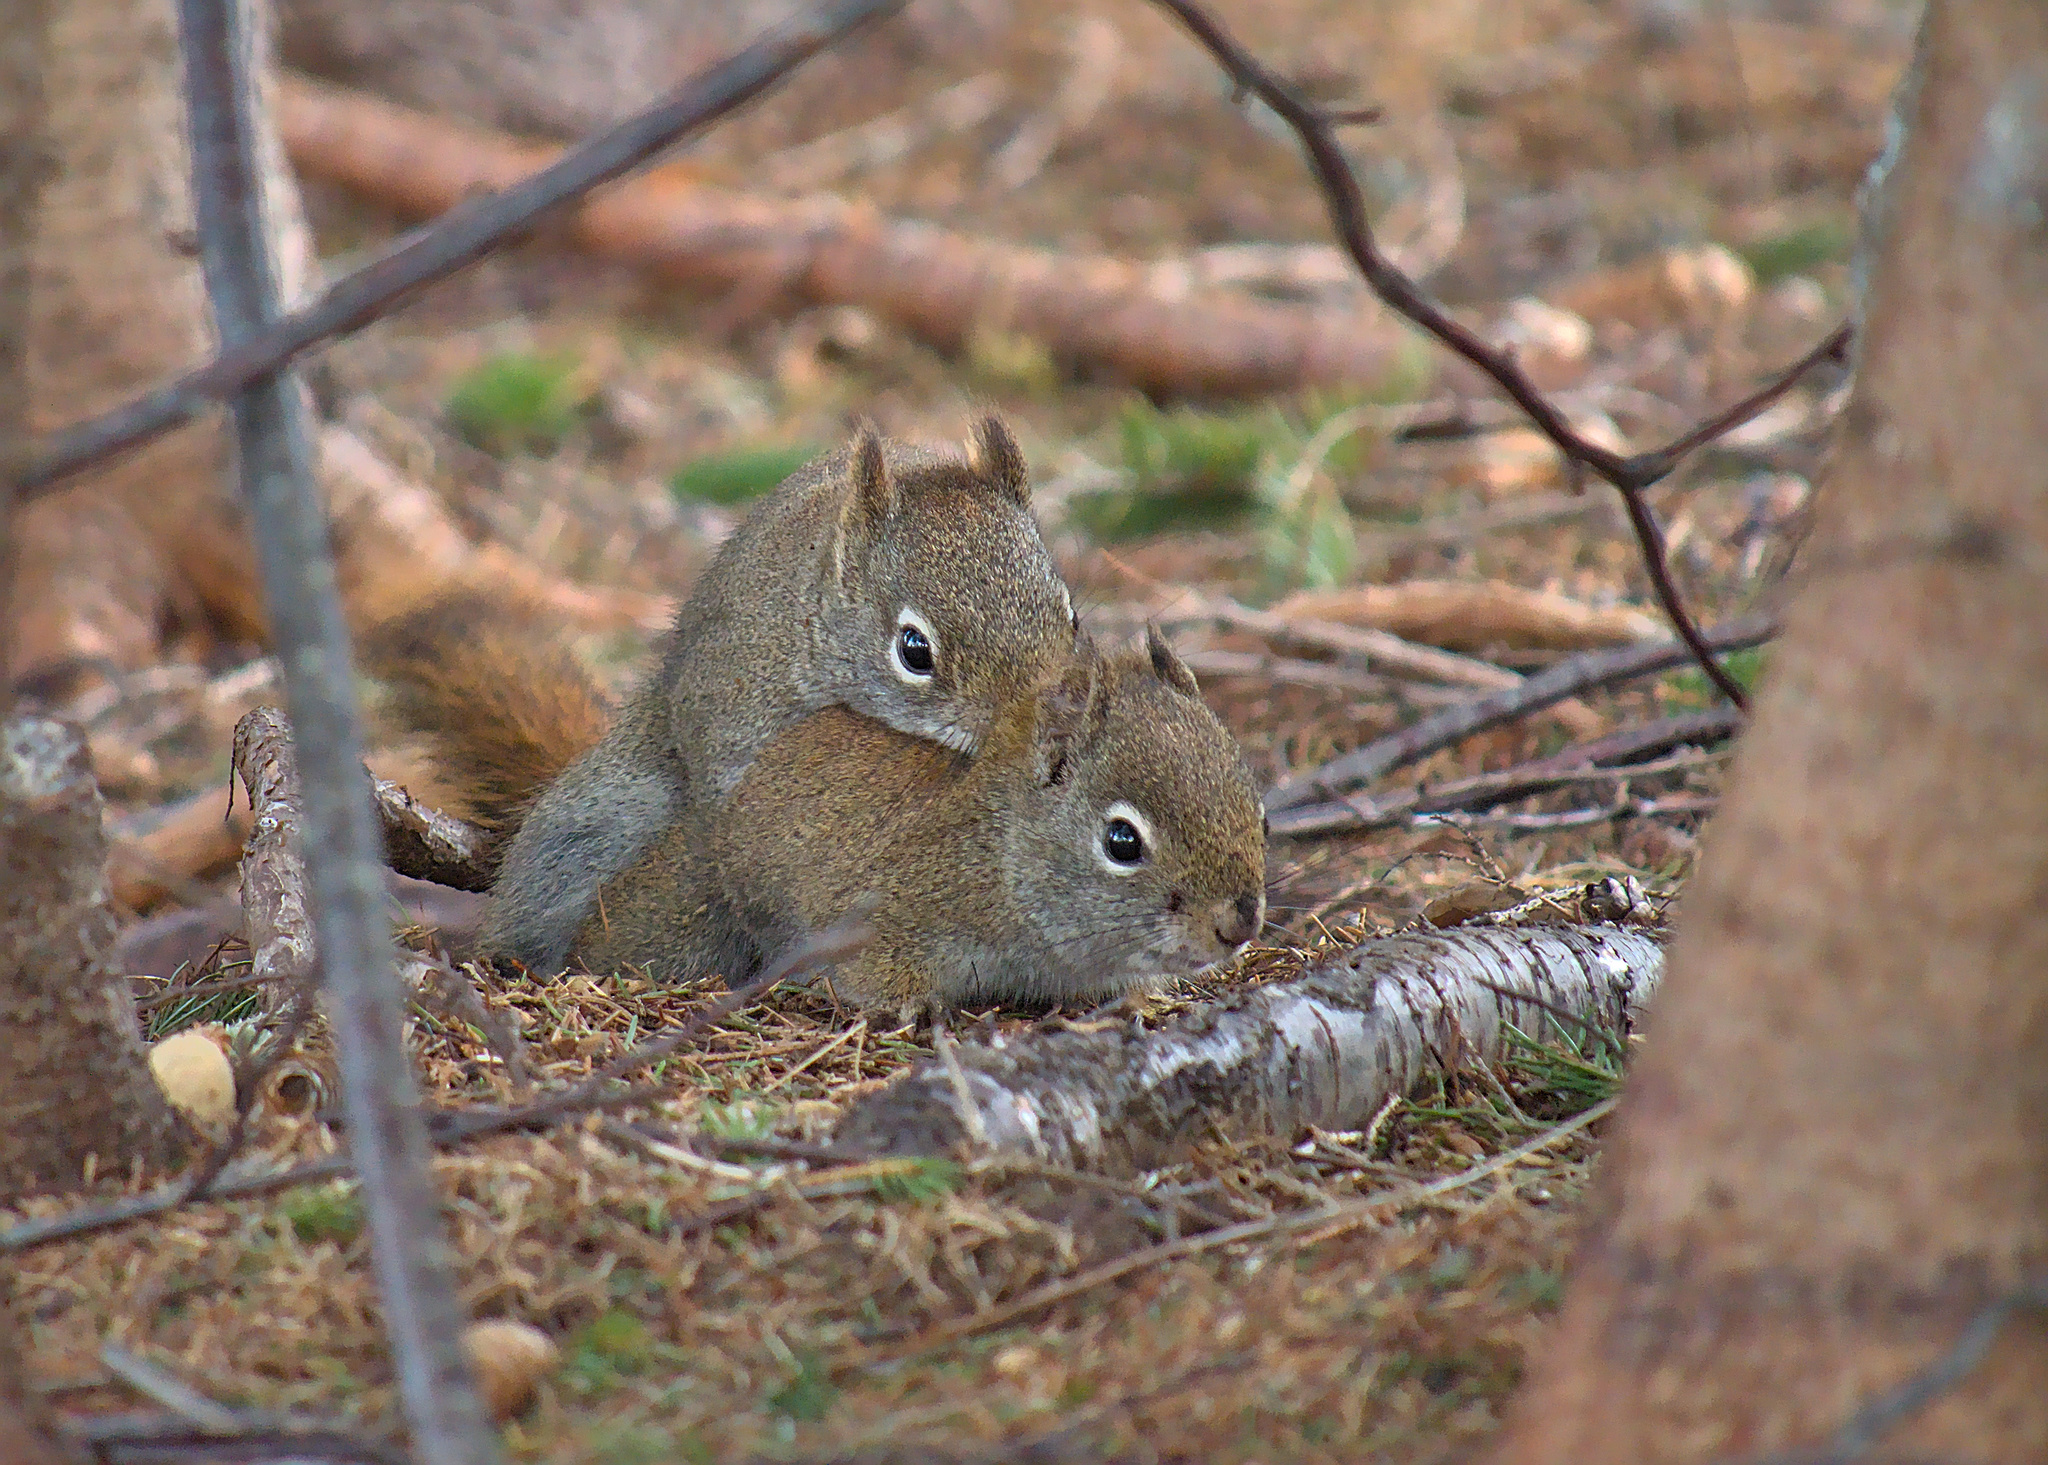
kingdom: Animalia
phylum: Chordata
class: Mammalia
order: Rodentia
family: Sciuridae
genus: Tamiasciurus
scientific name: Tamiasciurus hudsonicus
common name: Red squirrel
